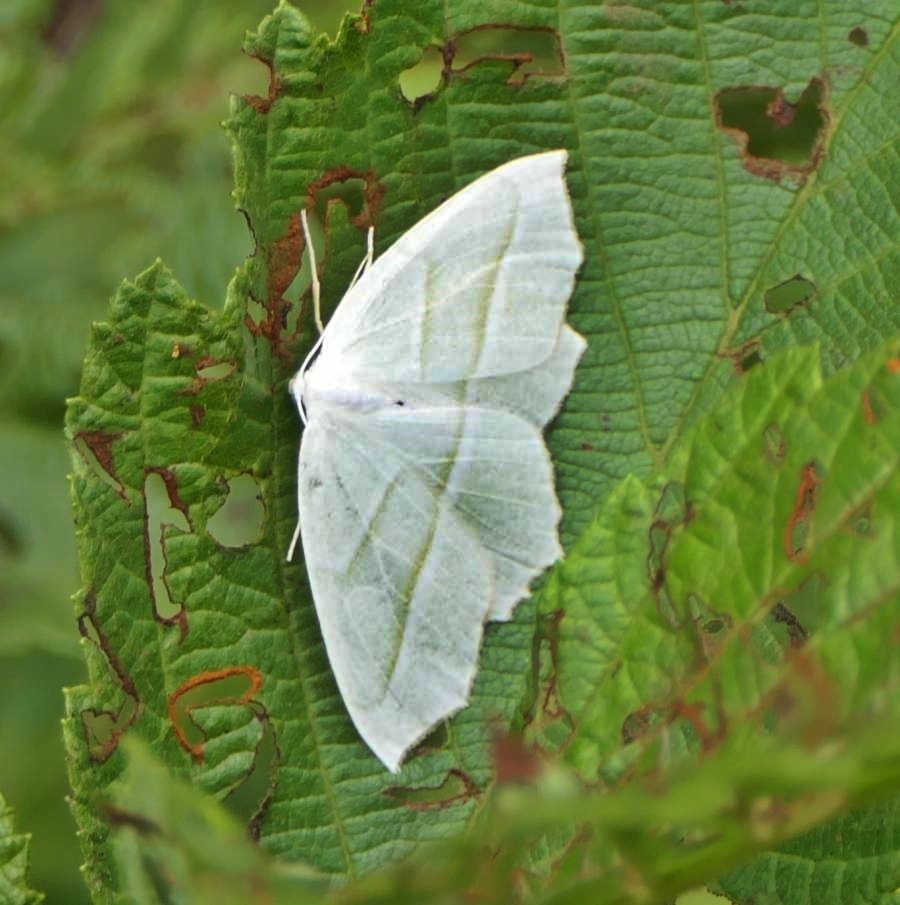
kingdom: Animalia
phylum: Arthropoda
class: Insecta
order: Lepidoptera
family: Geometridae
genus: Campaea
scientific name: Campaea perlata
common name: Fringed looper
